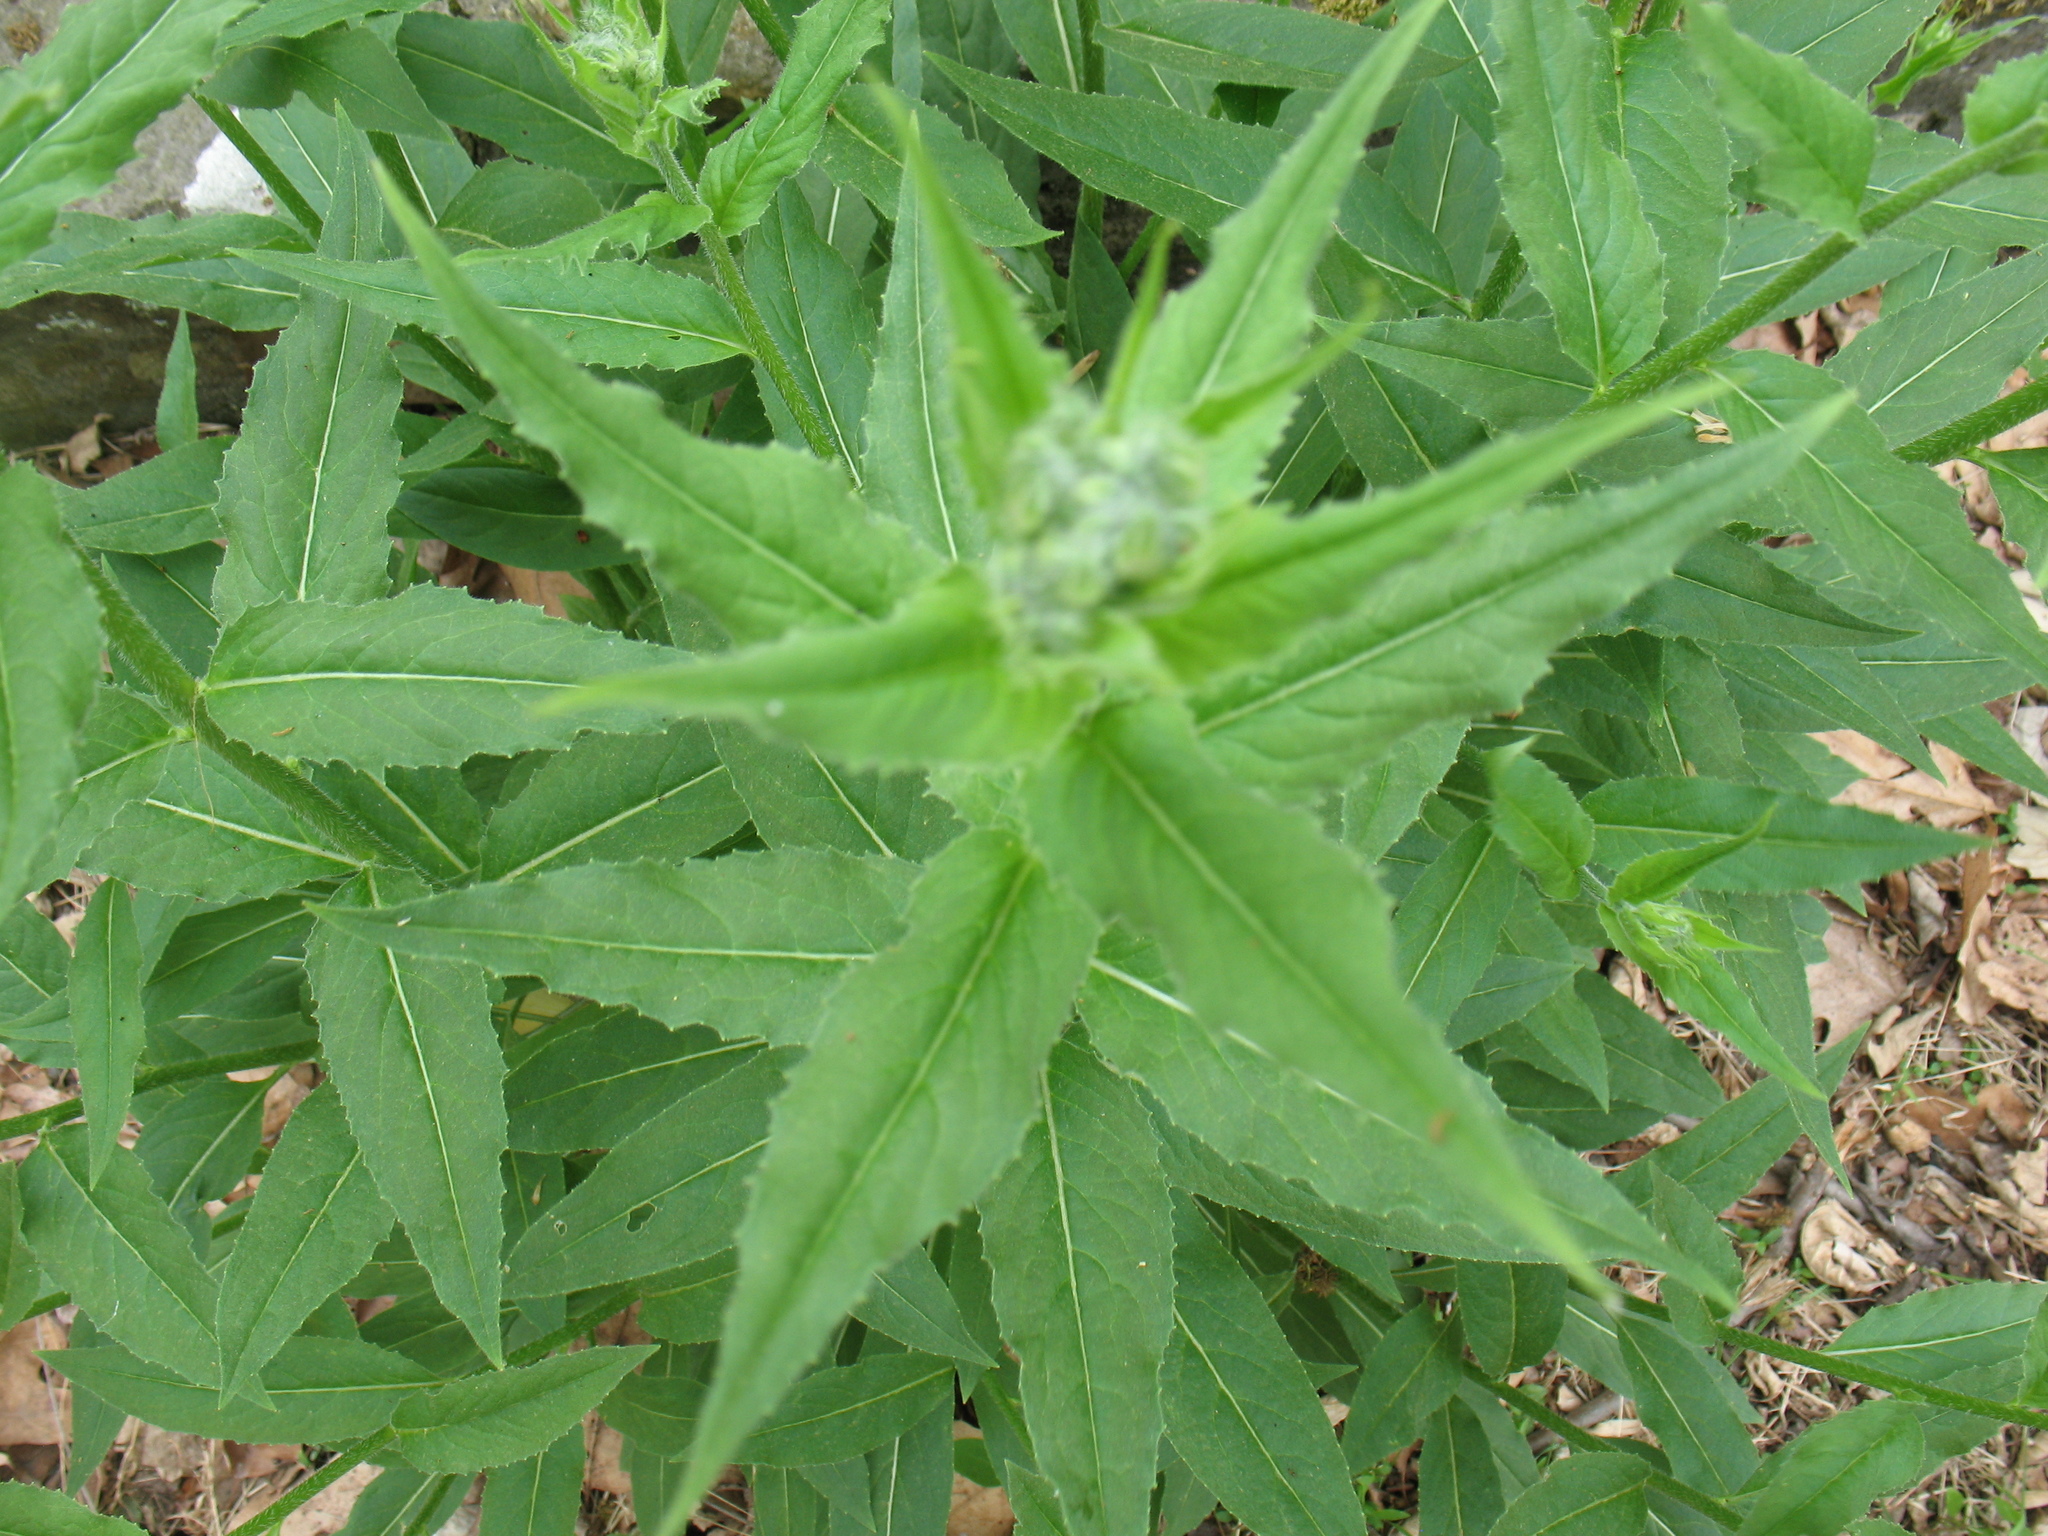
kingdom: Plantae
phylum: Tracheophyta
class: Magnoliopsida
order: Brassicales
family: Brassicaceae
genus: Hesperis
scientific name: Hesperis matronalis
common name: Dame's-violet
